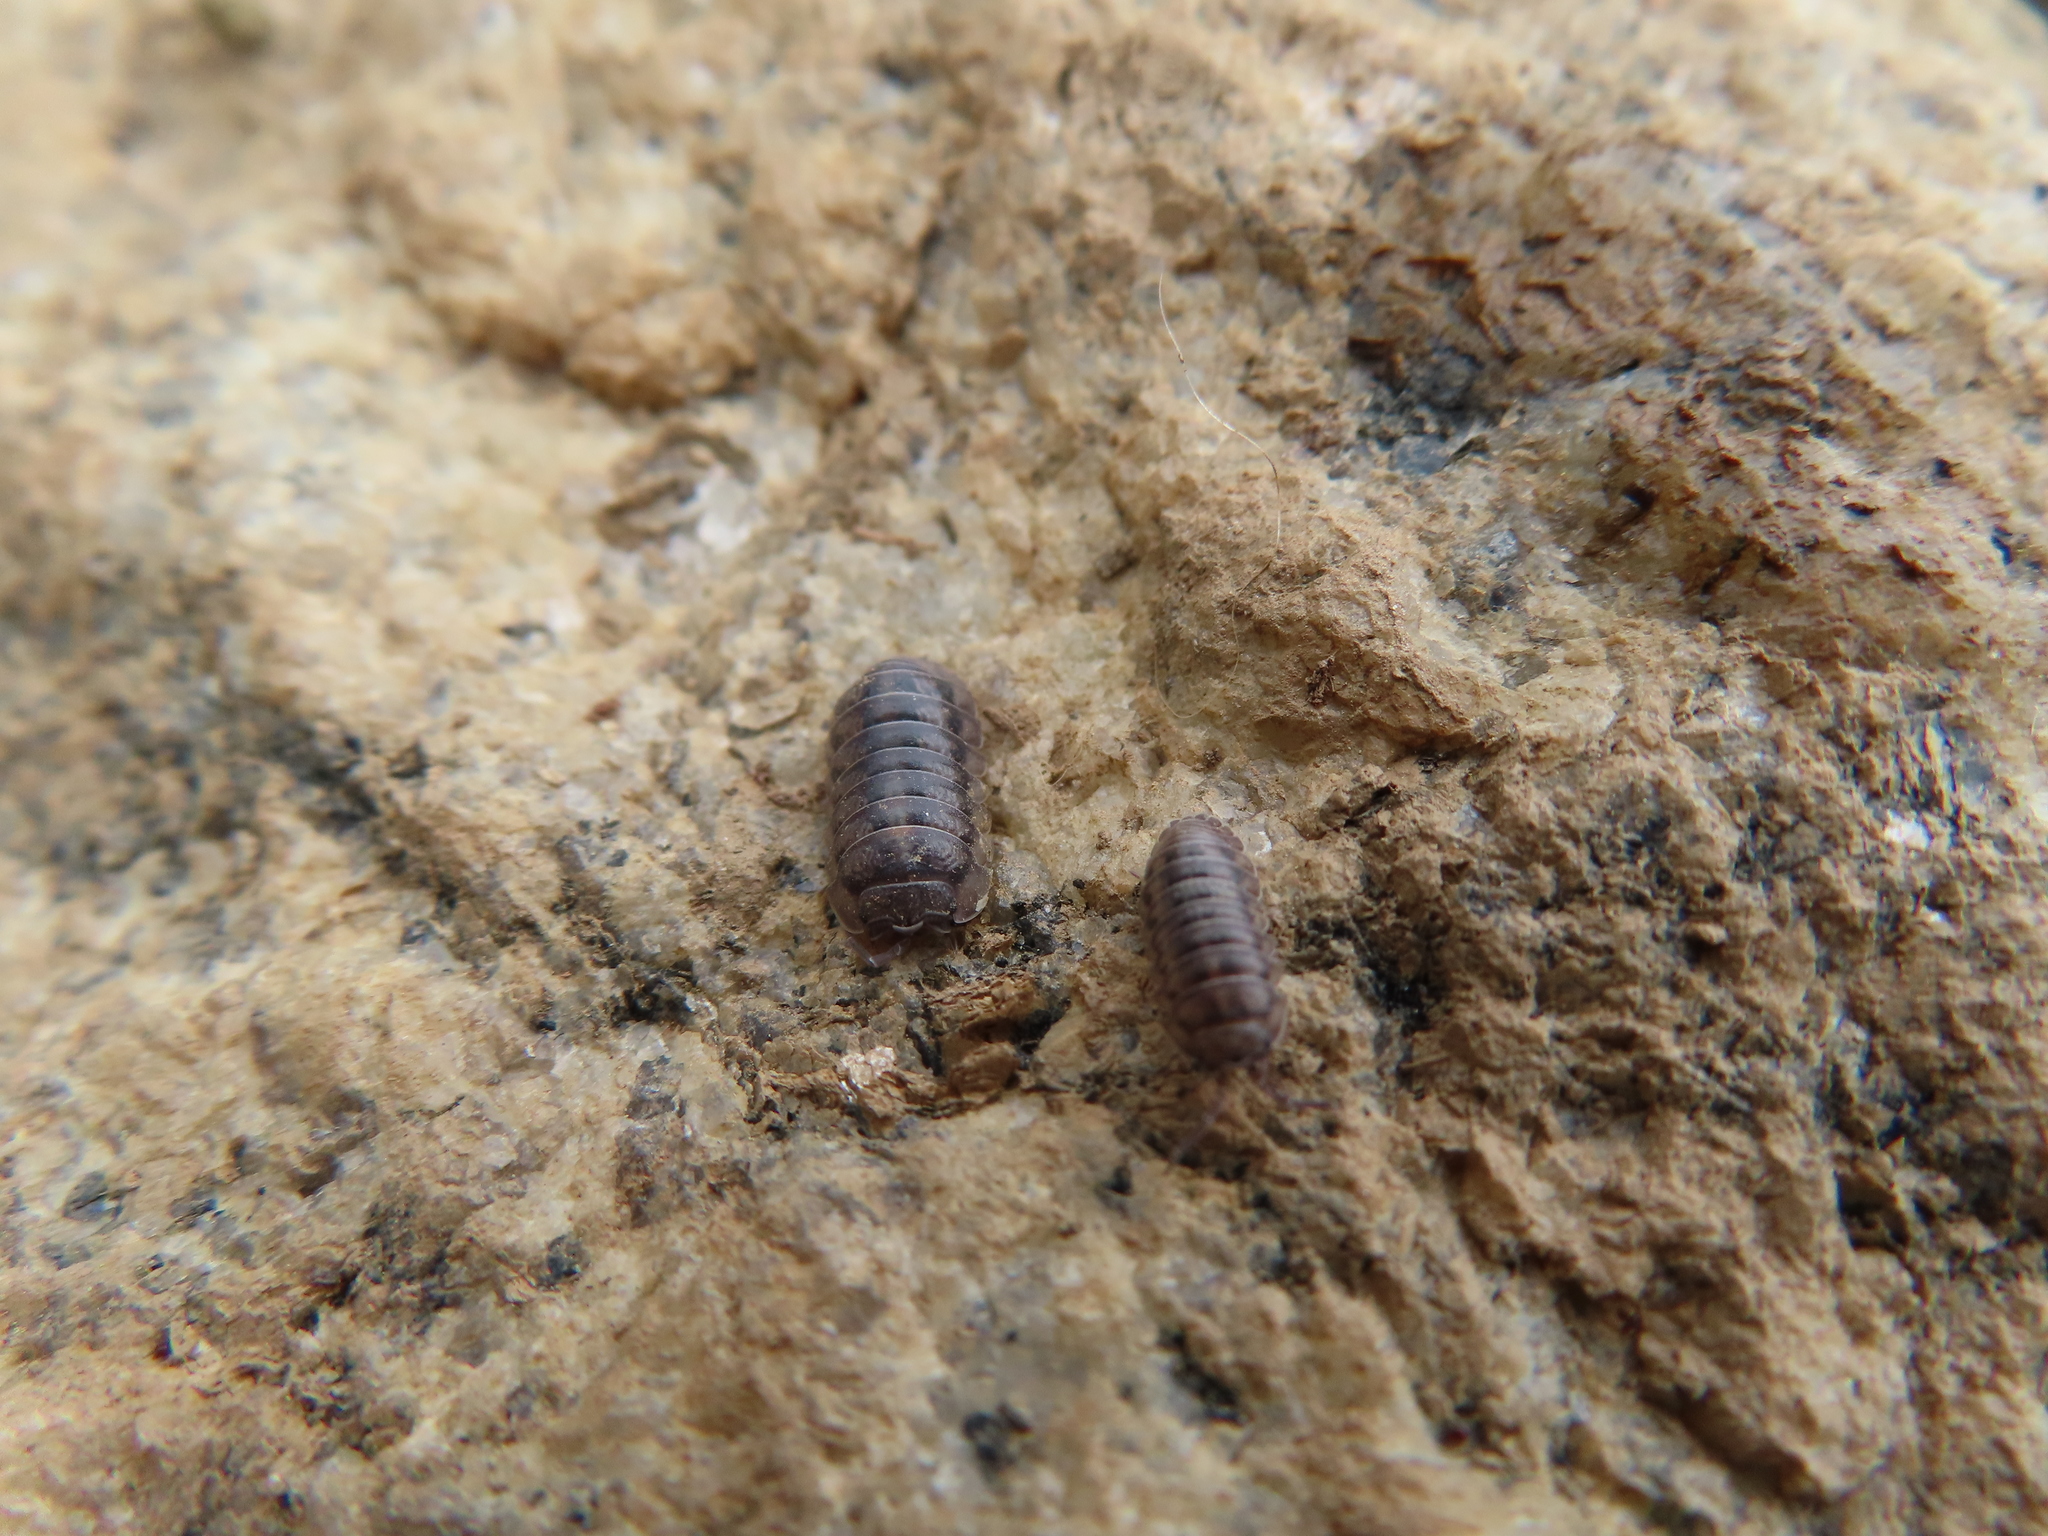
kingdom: Animalia
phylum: Arthropoda
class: Malacostraca
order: Isopoda
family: Armadillidiidae
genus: Armadillidium
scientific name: Armadillidium nasatum
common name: Isopod
